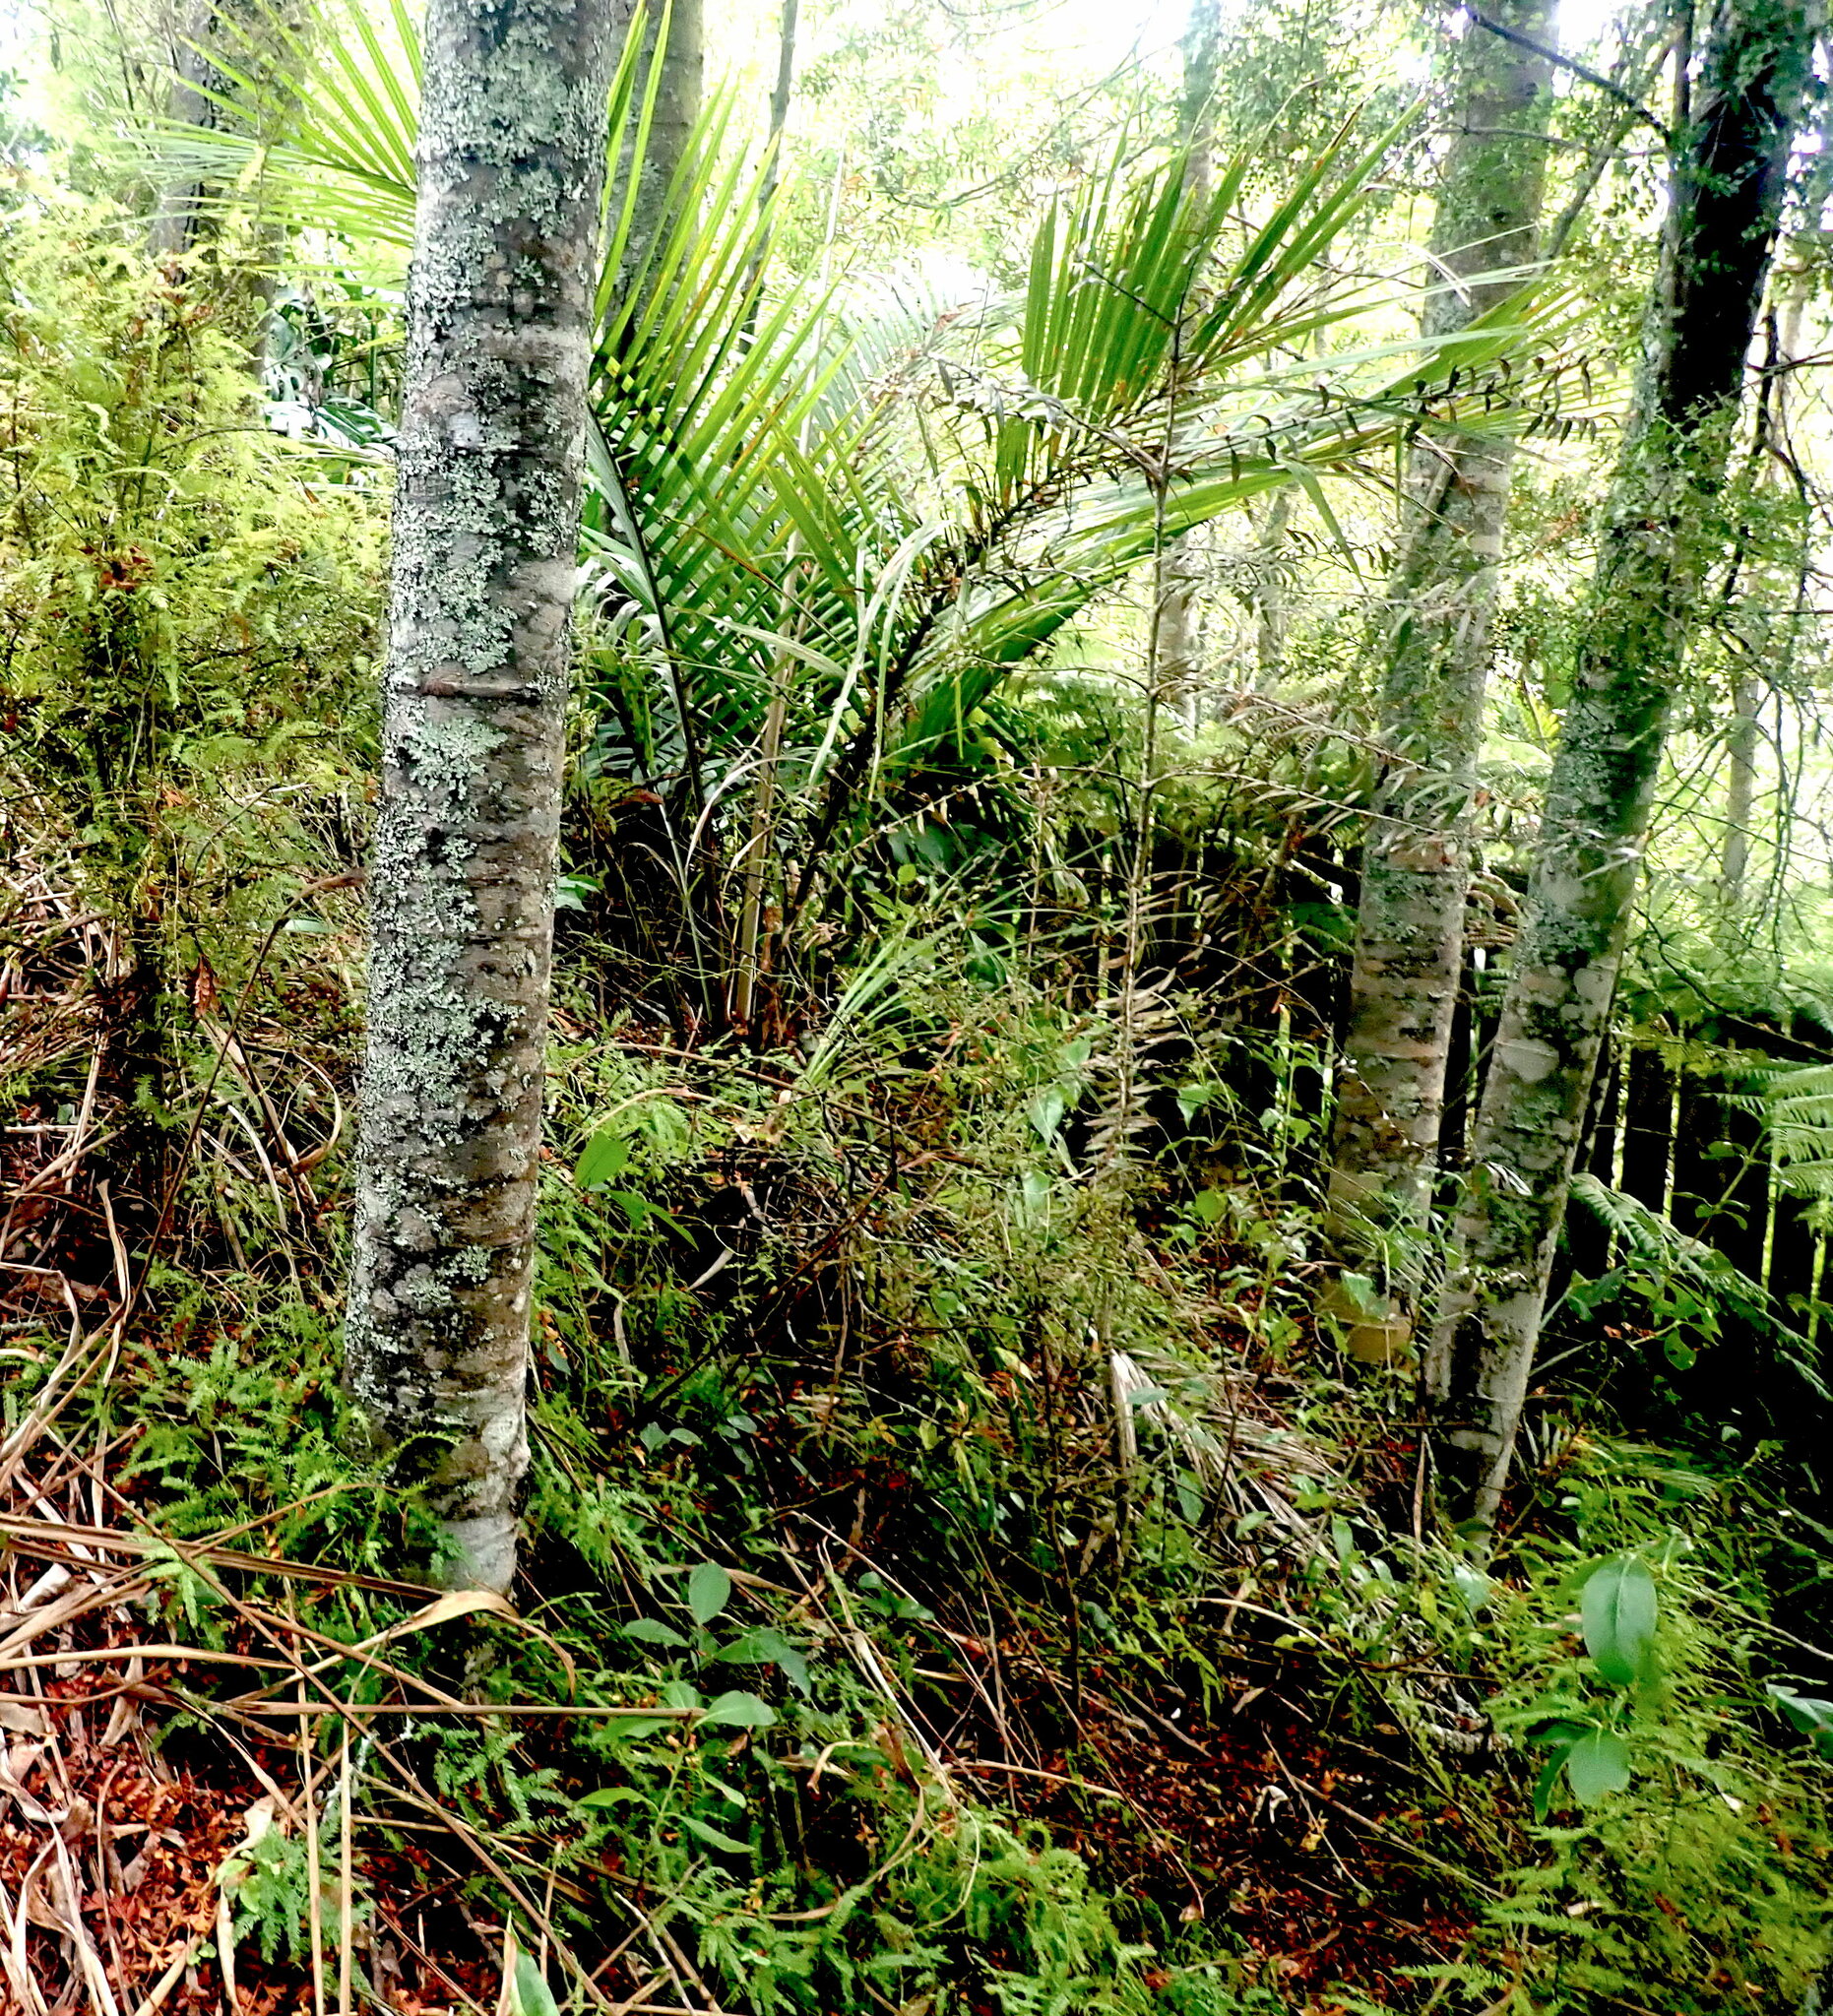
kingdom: Plantae
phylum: Tracheophyta
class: Pinopsida
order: Pinales
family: Araucariaceae
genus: Agathis
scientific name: Agathis australis
